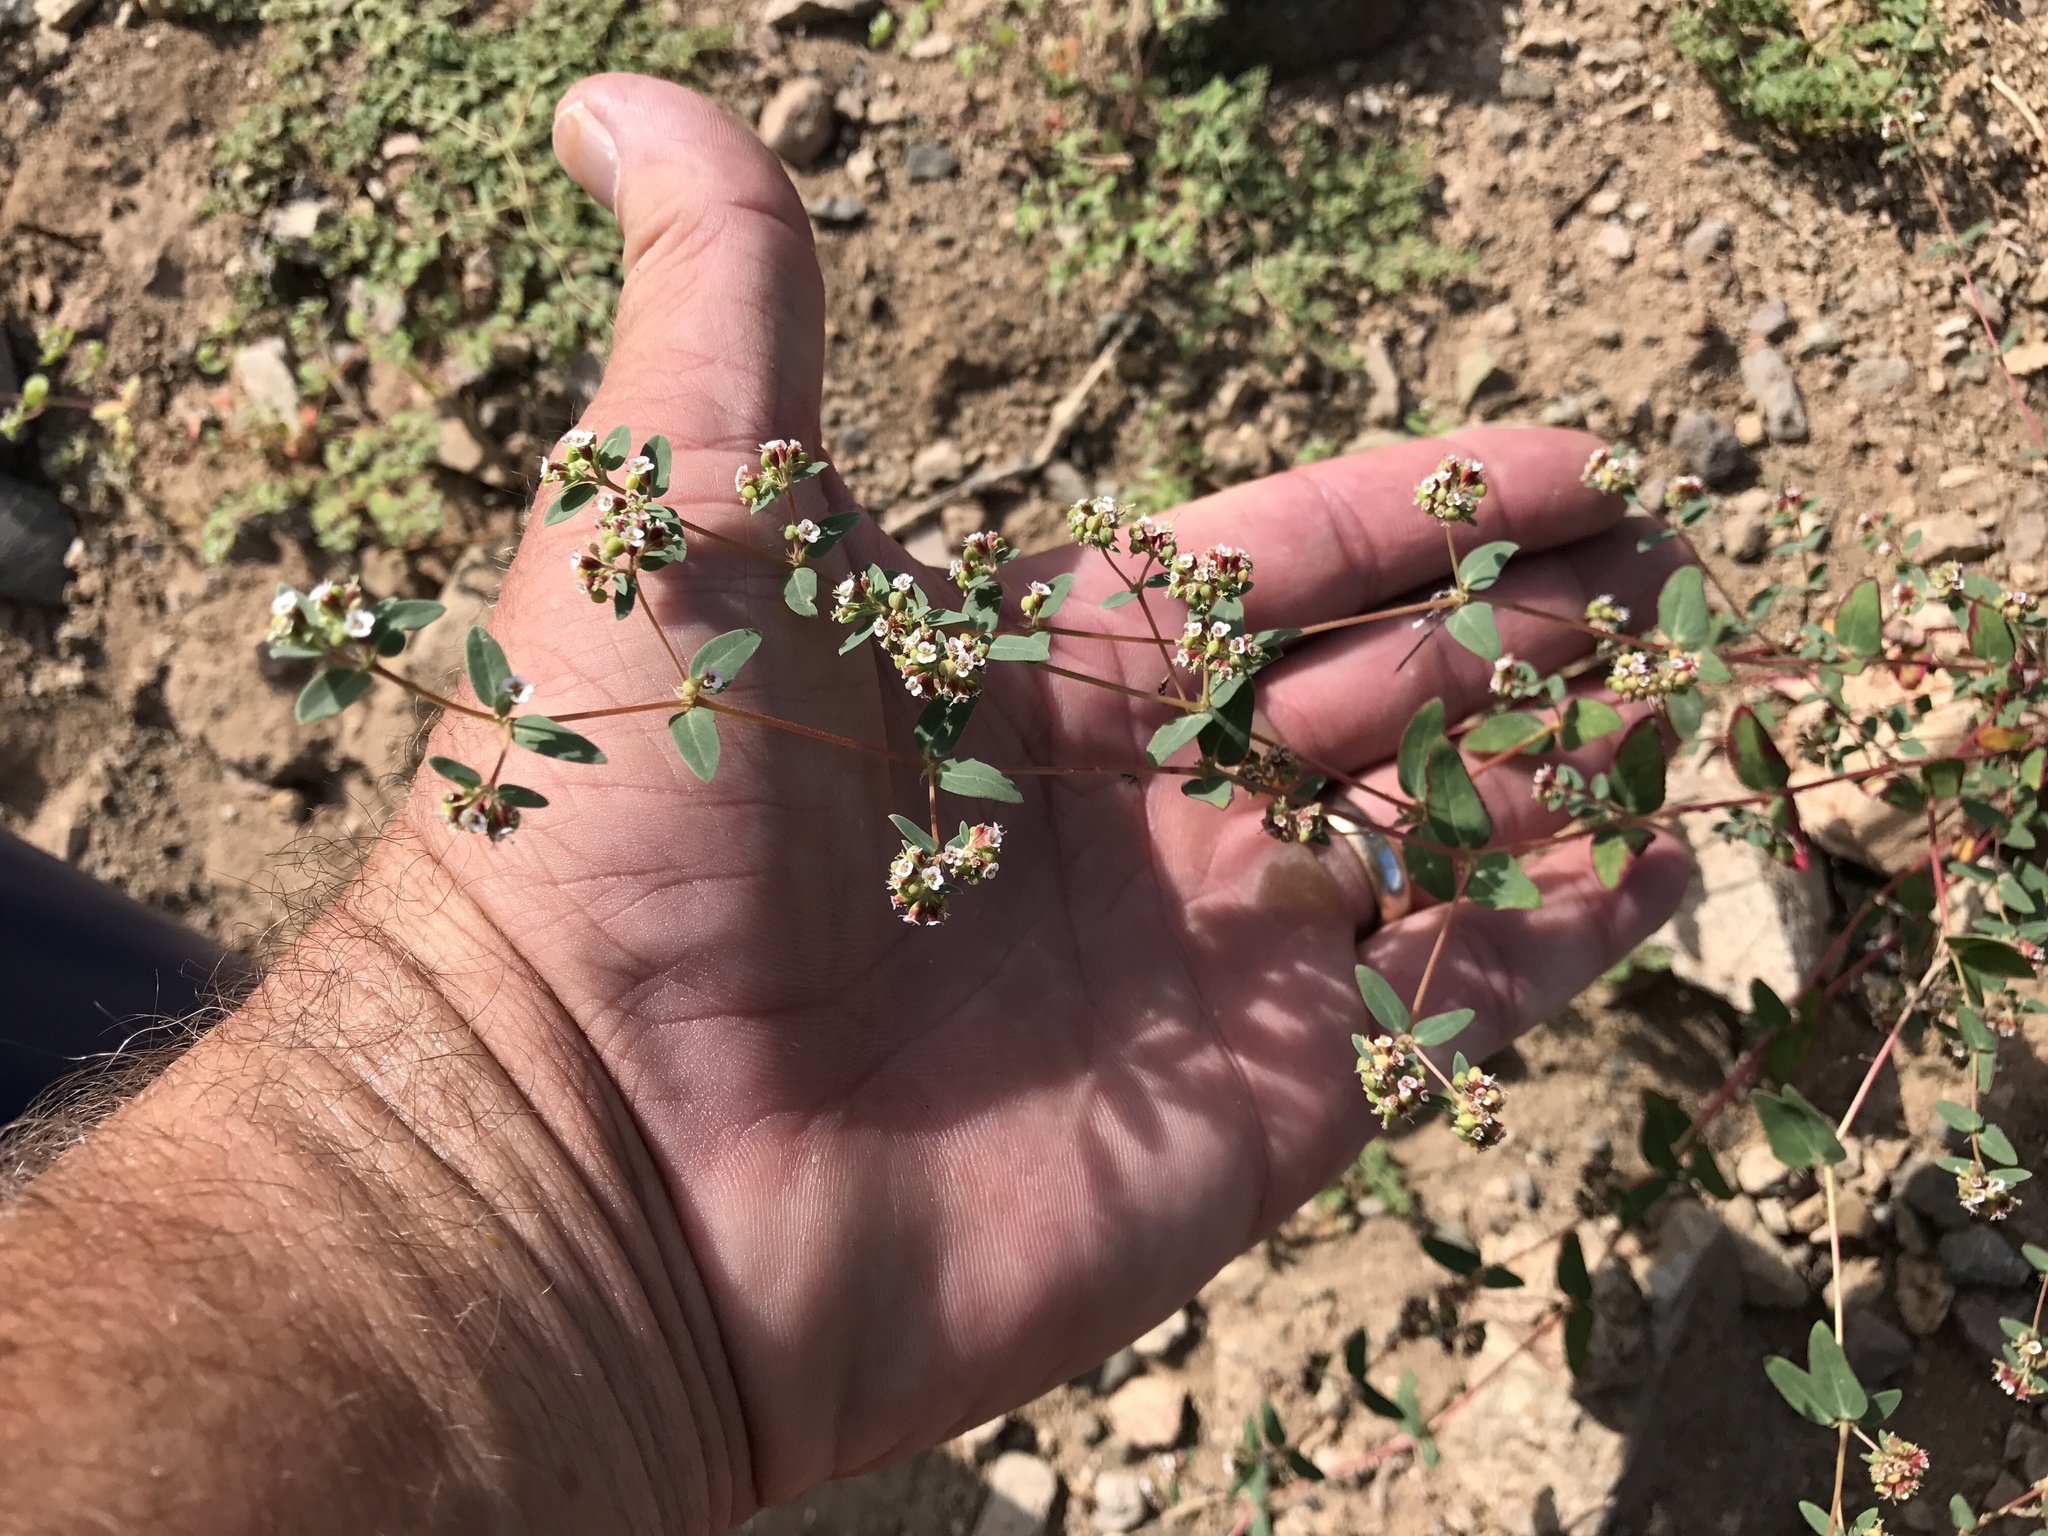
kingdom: Plantae
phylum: Tracheophyta
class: Magnoliopsida
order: Malpighiales
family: Euphorbiaceae
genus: Euphorbia
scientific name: Euphorbia capitellata
